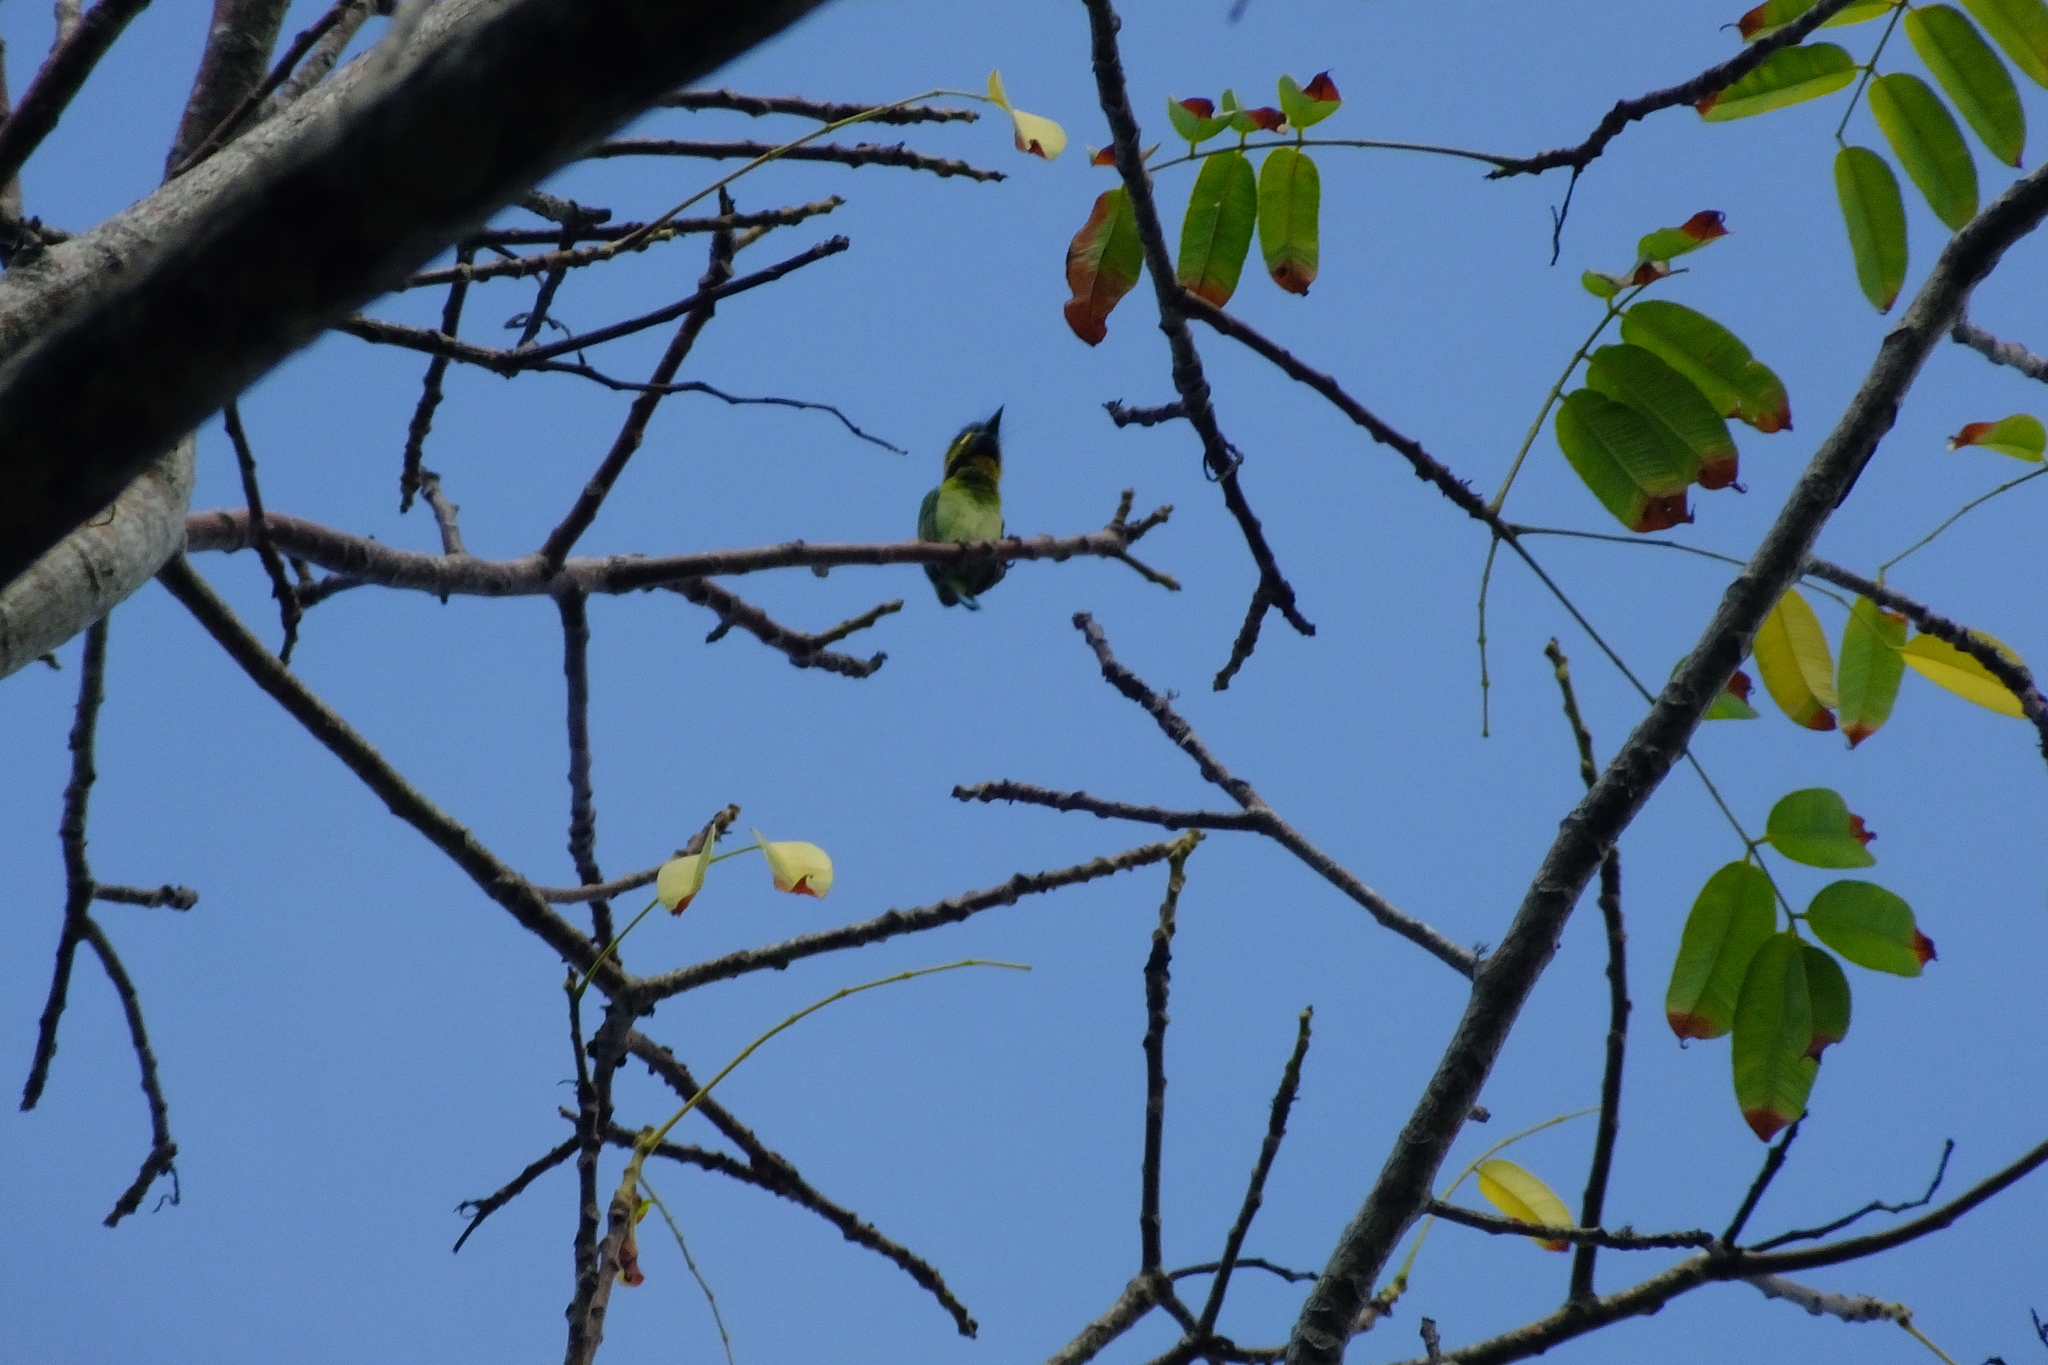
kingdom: Animalia
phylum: Chordata
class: Aves
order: Piciformes
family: Megalaimidae
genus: Psilopogon
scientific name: Psilopogon australis
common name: Yellow-eared barbet
